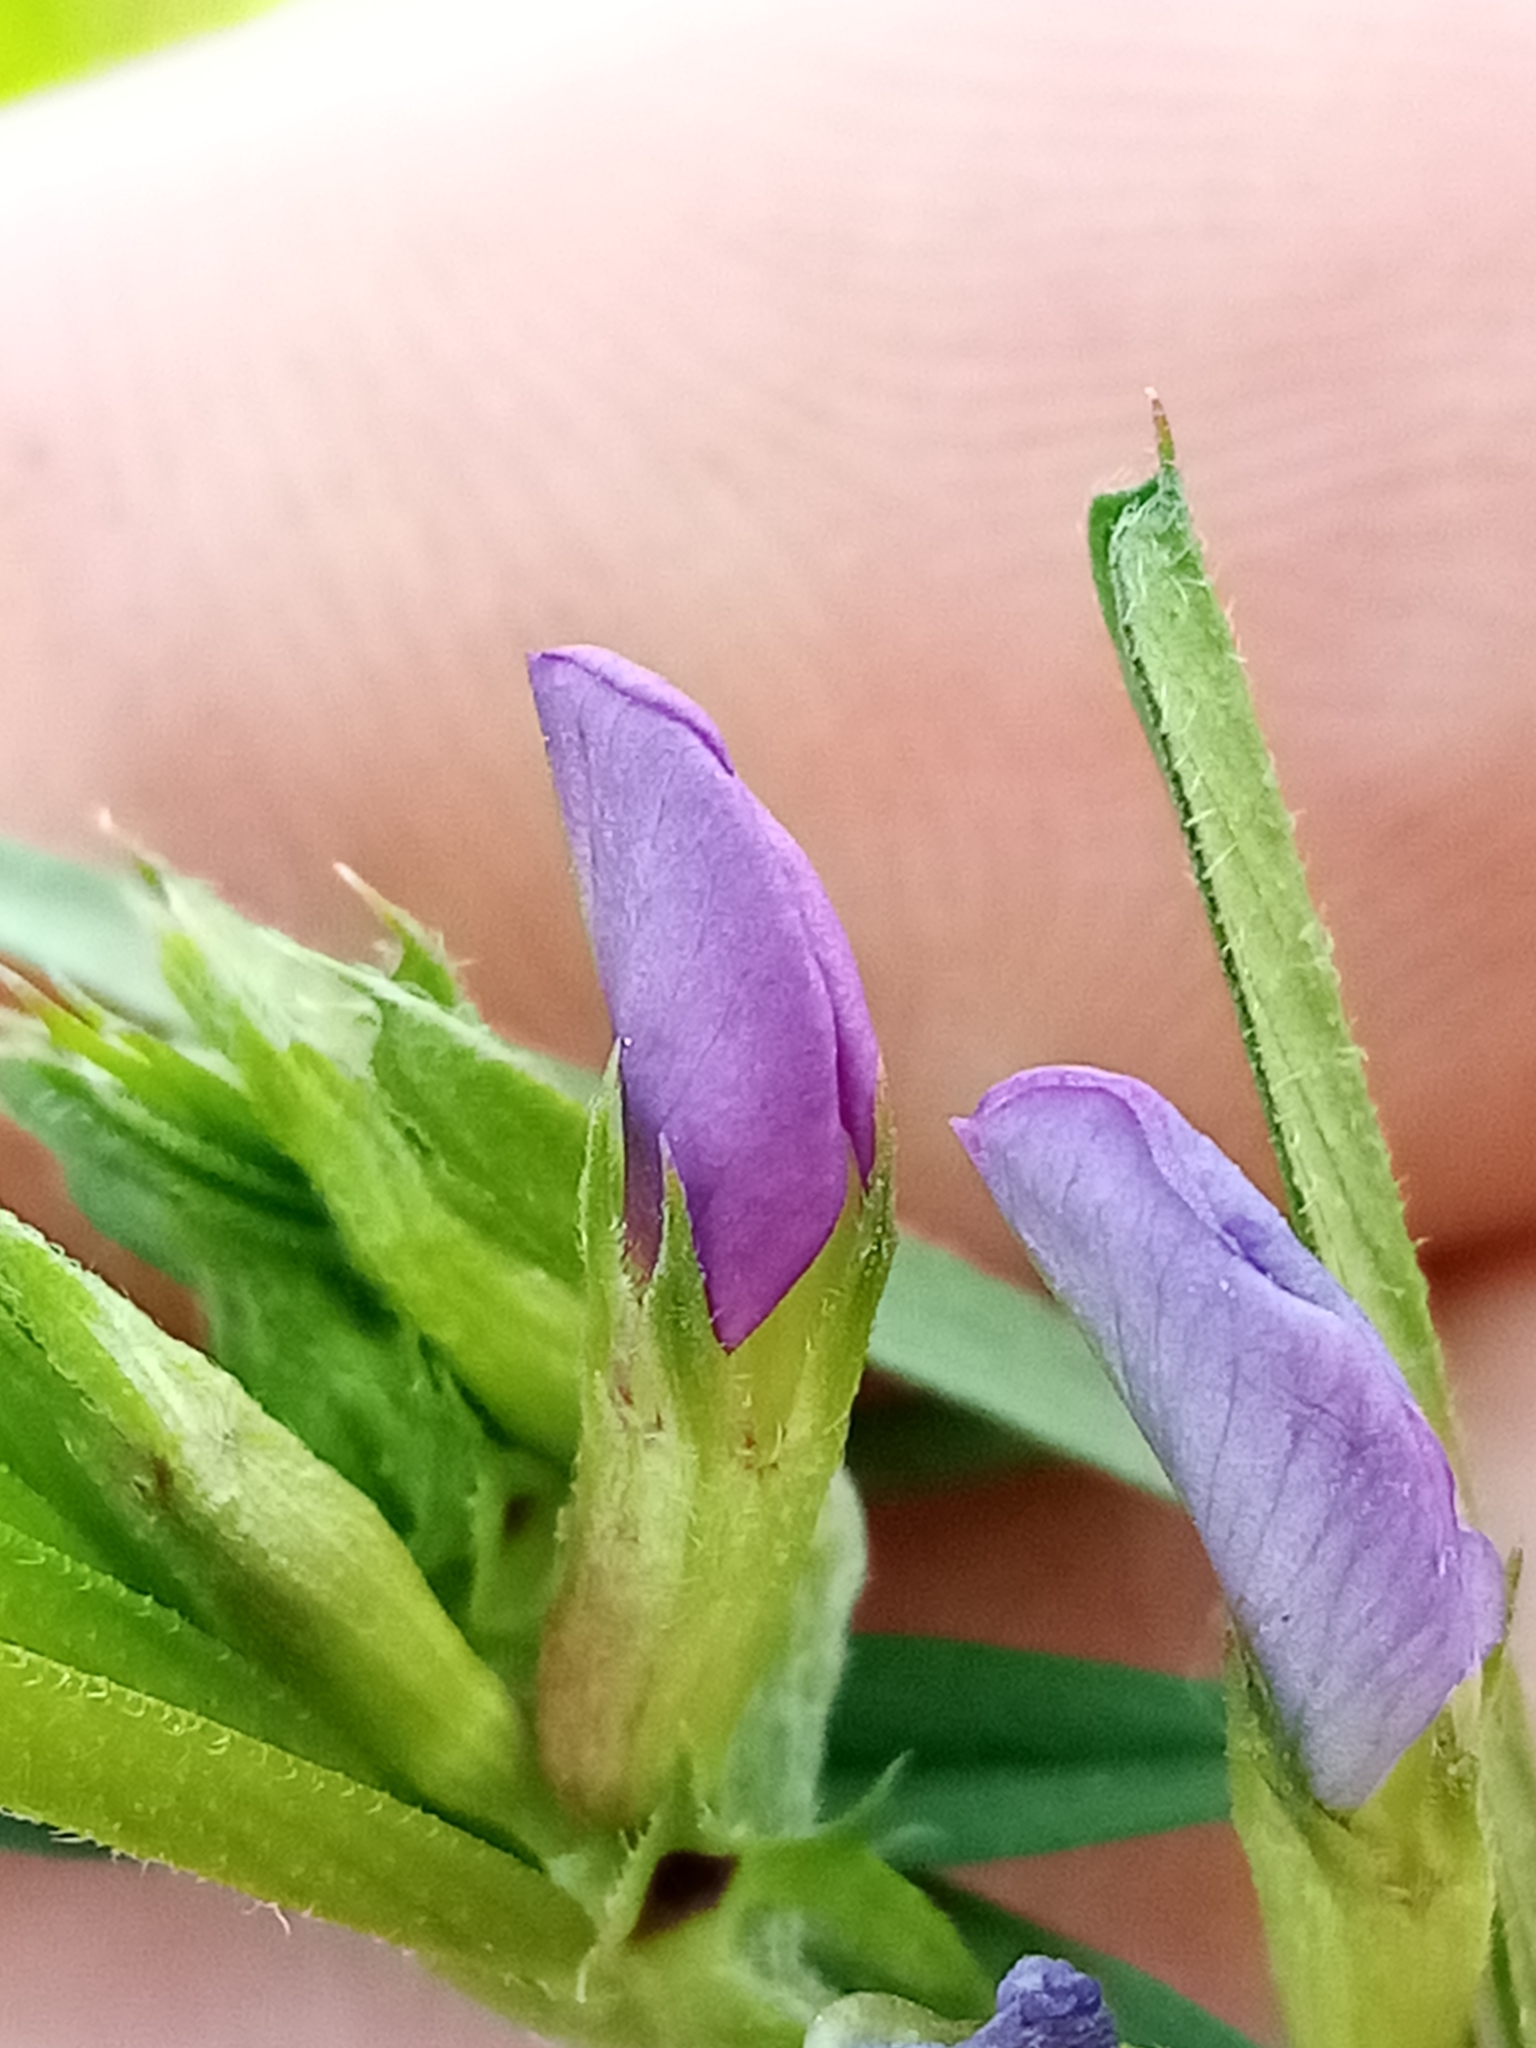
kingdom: Plantae
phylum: Tracheophyta
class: Magnoliopsida
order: Fabales
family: Fabaceae
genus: Vicia
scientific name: Vicia sativa
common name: Garden vetch
